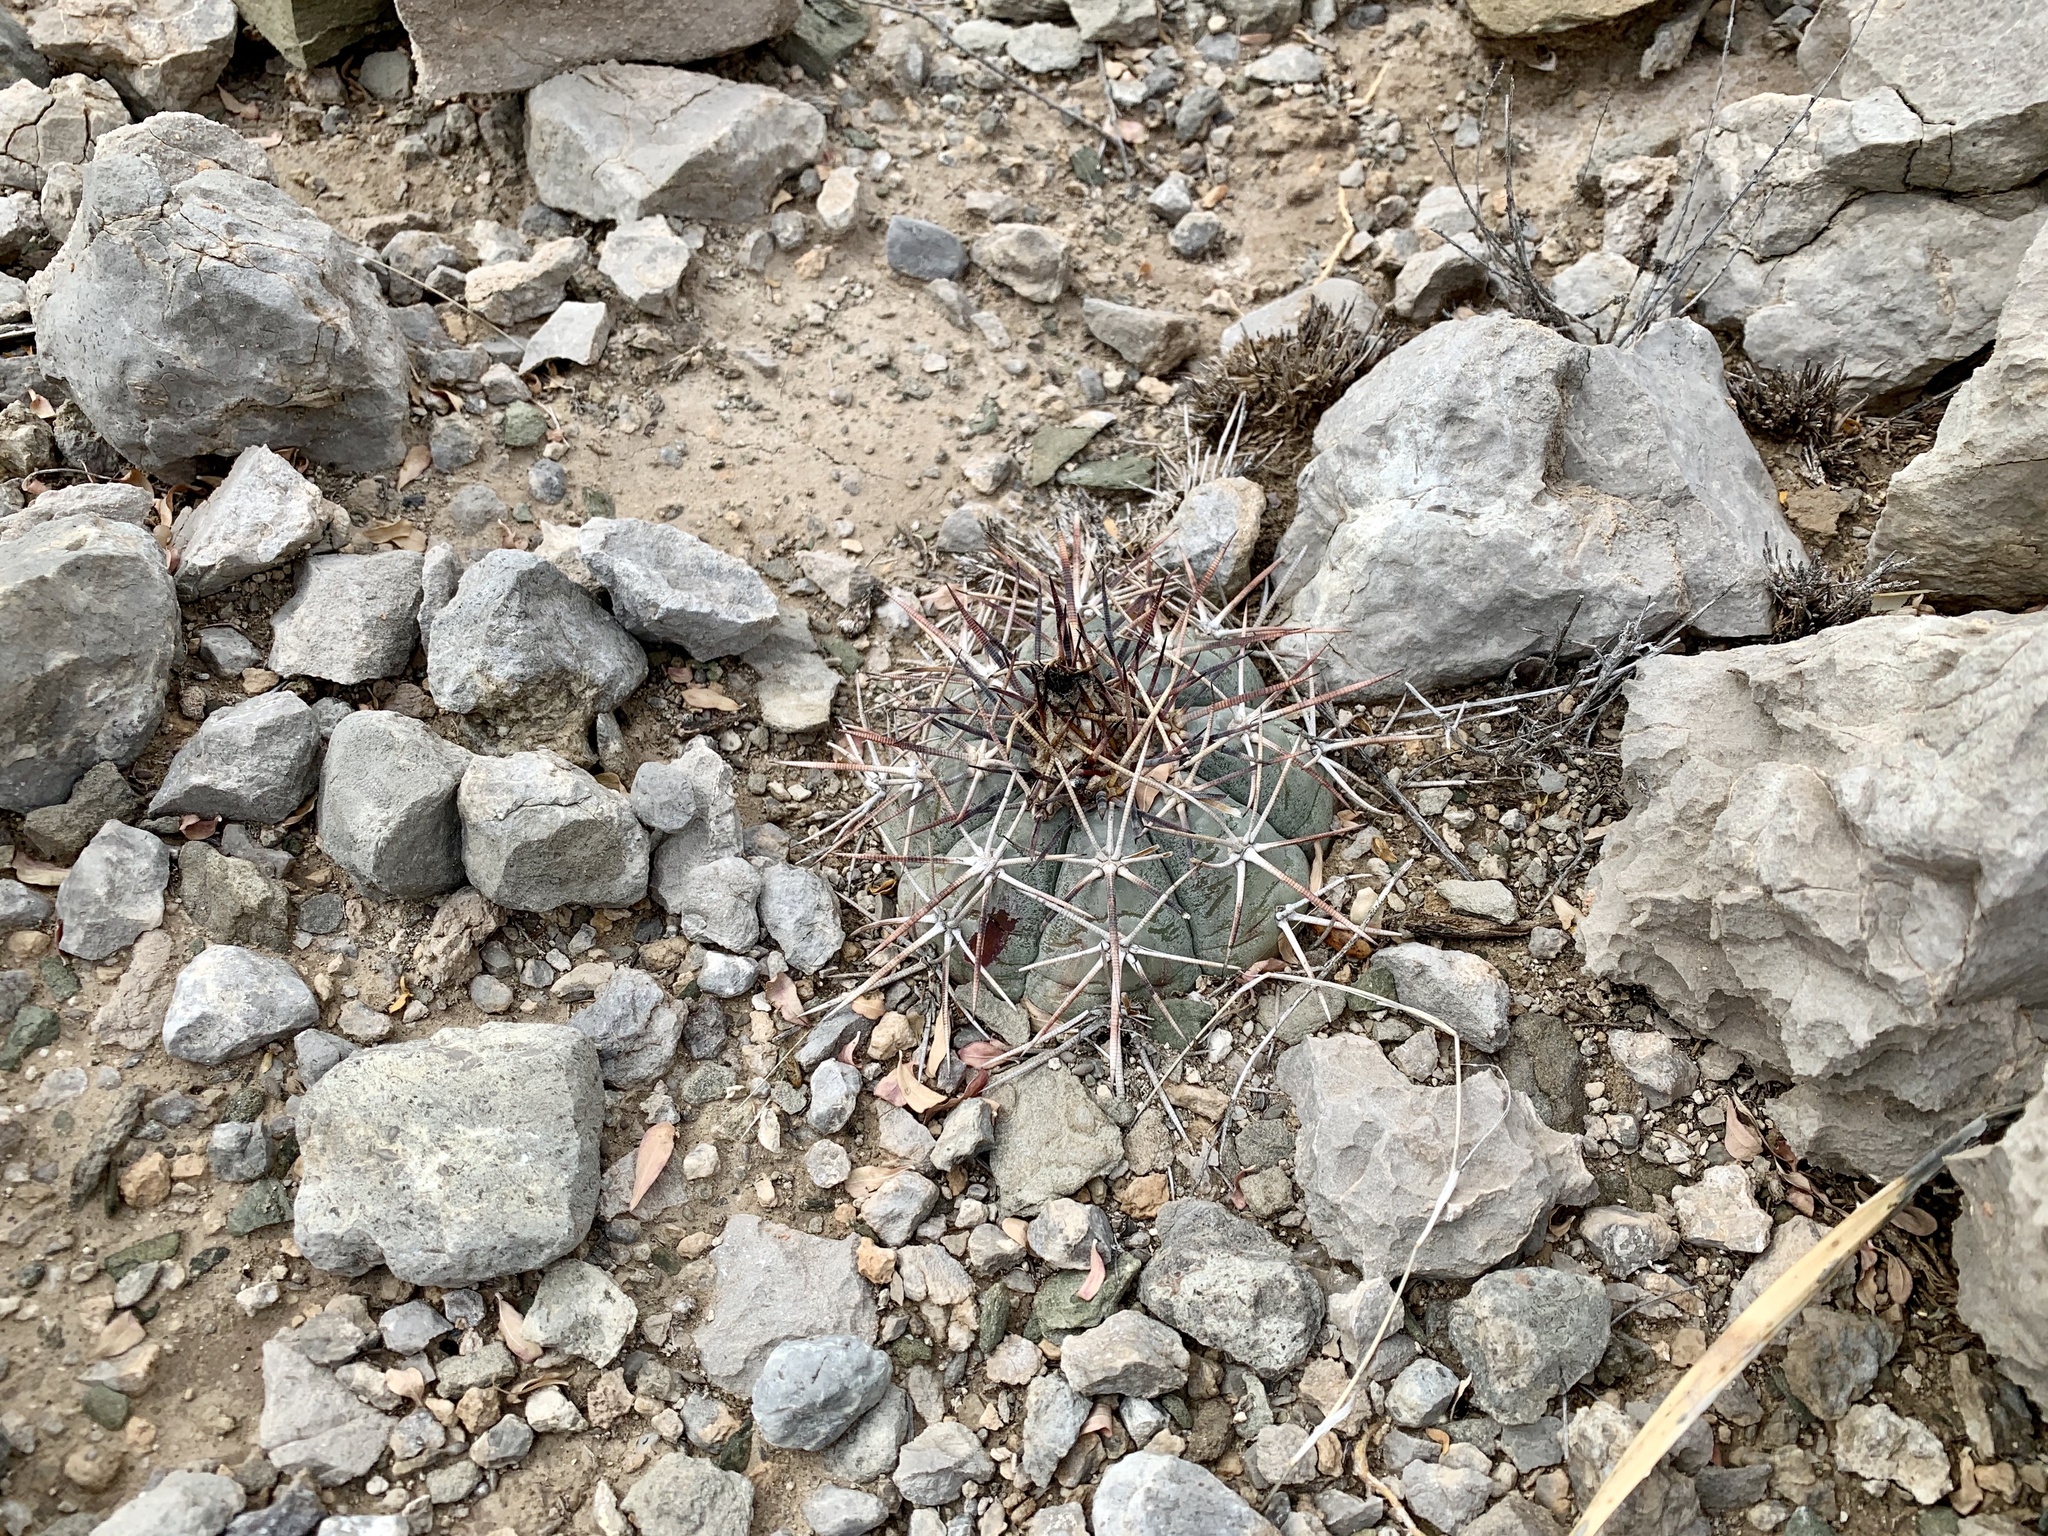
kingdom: Plantae
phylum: Tracheophyta
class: Magnoliopsida
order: Caryophyllales
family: Cactaceae
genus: Echinocactus
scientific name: Echinocactus horizonthalonius
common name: Devilshead
